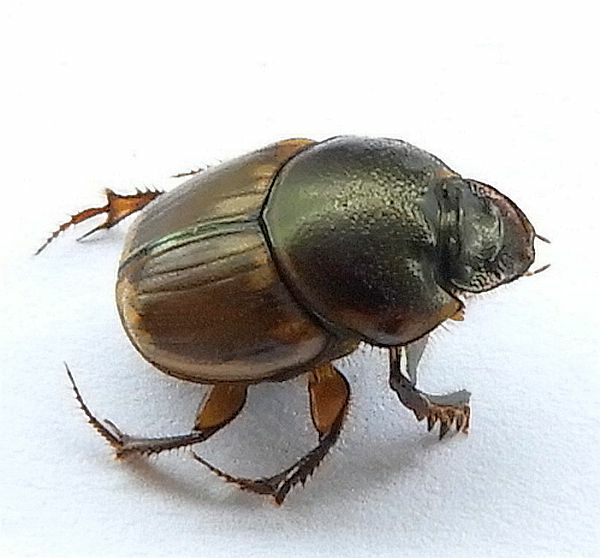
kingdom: Animalia
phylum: Arthropoda
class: Insecta
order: Coleoptera
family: Scarabaeidae
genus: Digitonthophagus
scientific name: Digitonthophagus gazella
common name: Brown dung beetle
